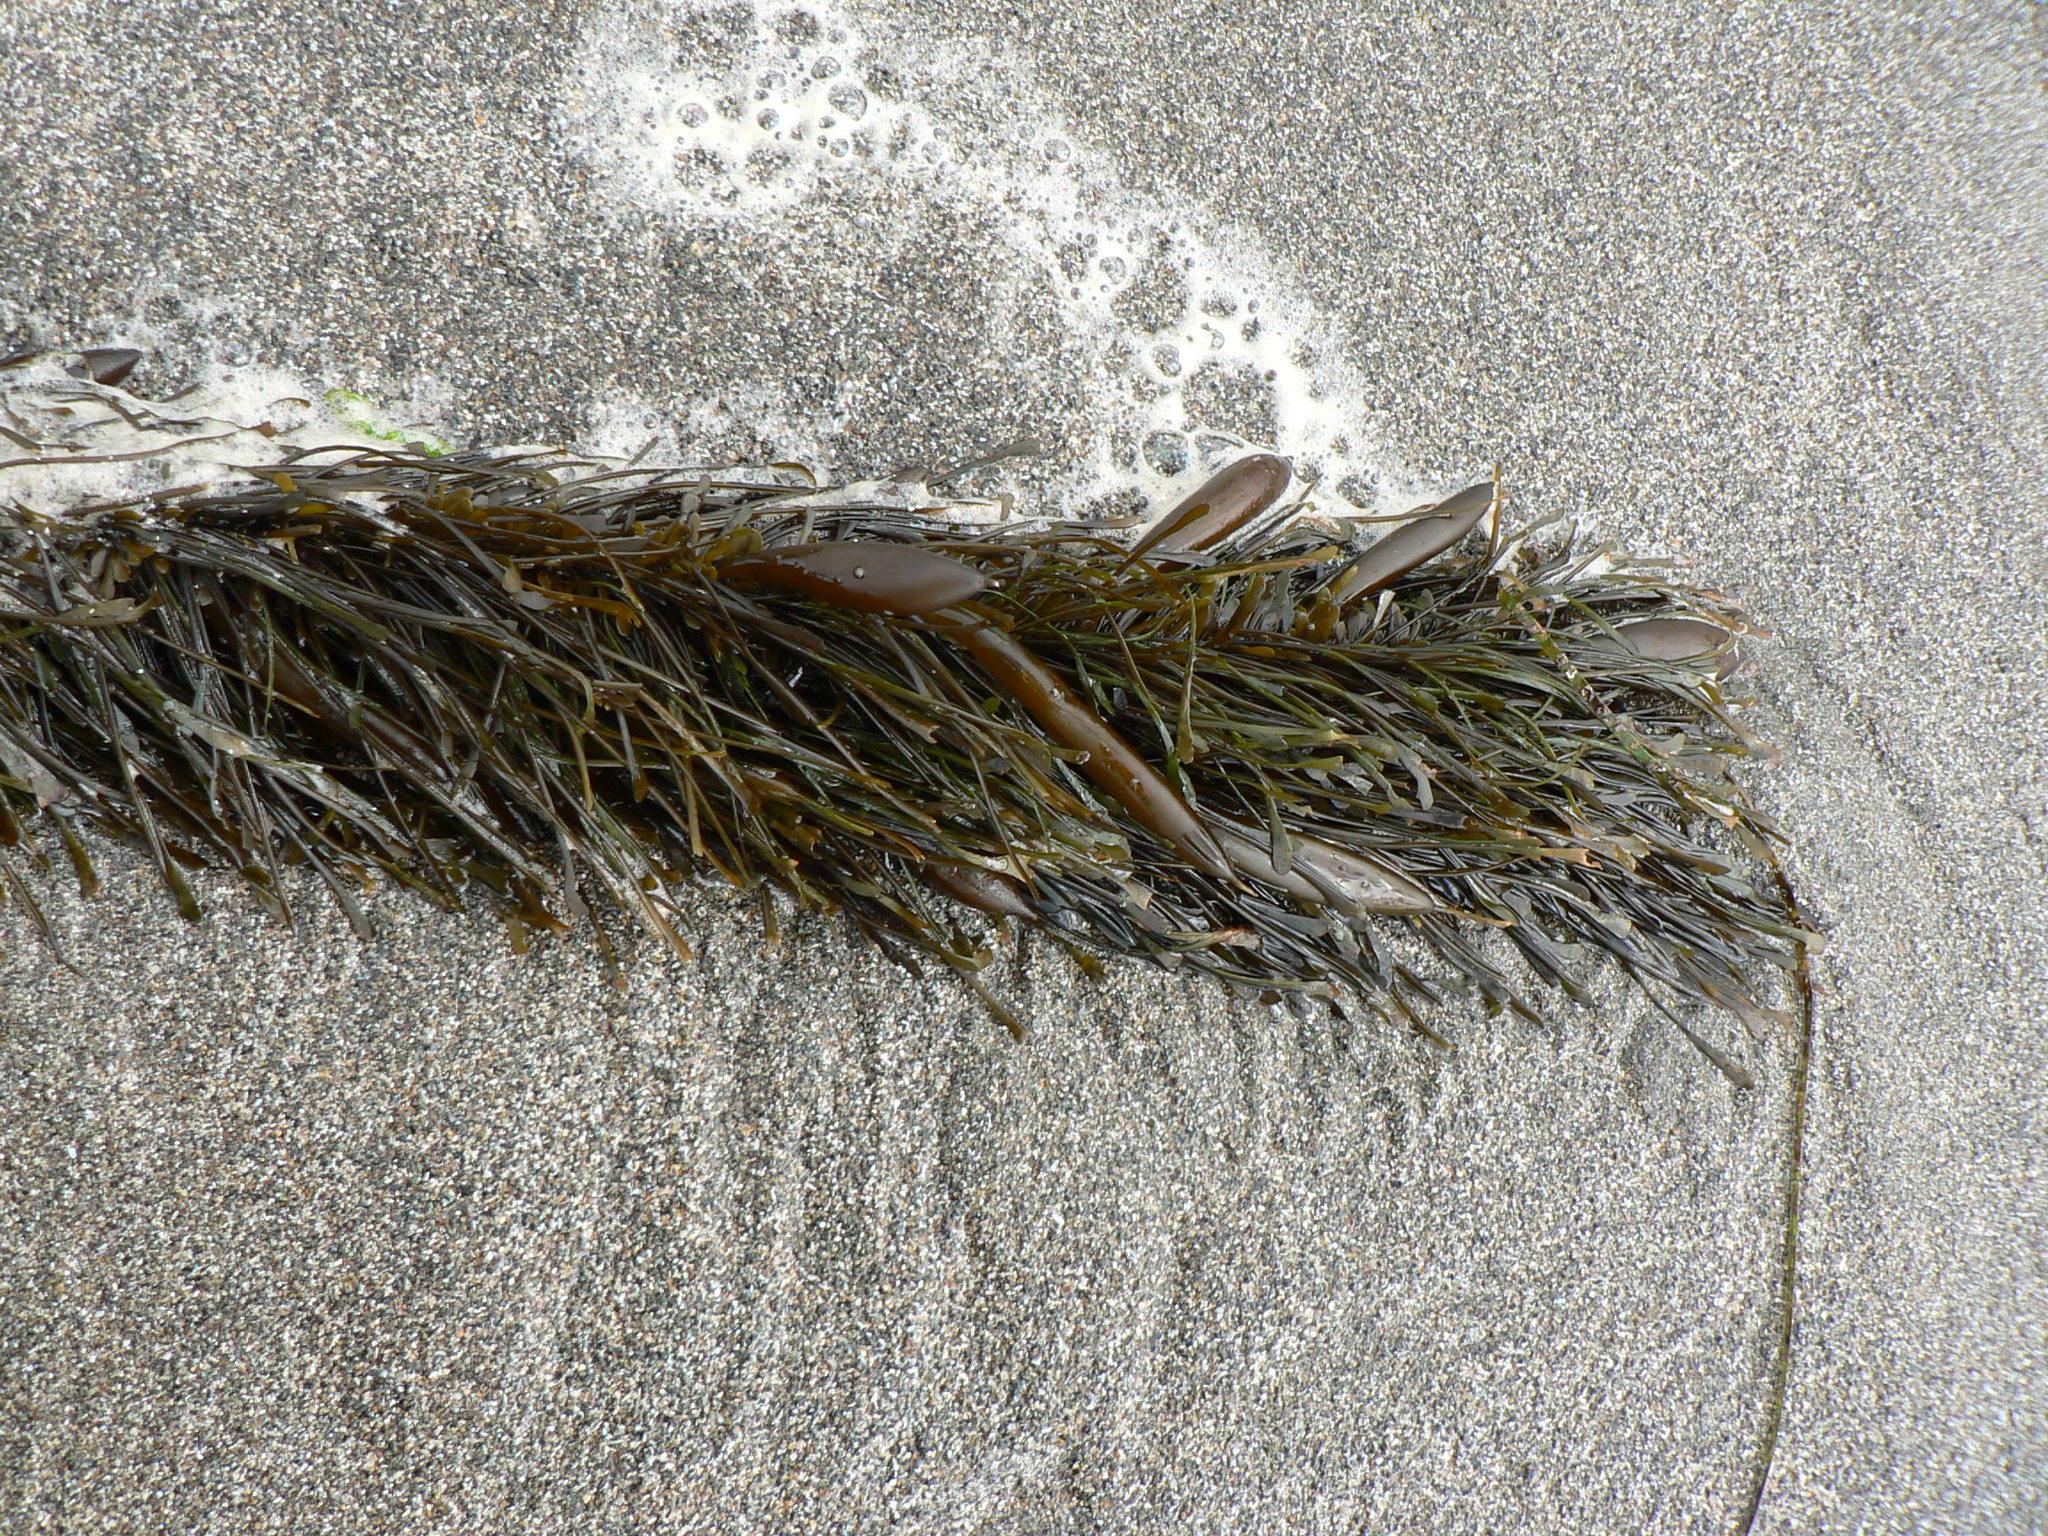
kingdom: Chromista
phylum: Ochrophyta
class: Phaeophyceae
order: Laminariales
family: Lessoniaceae
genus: Egregia
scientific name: Egregia menziesii
